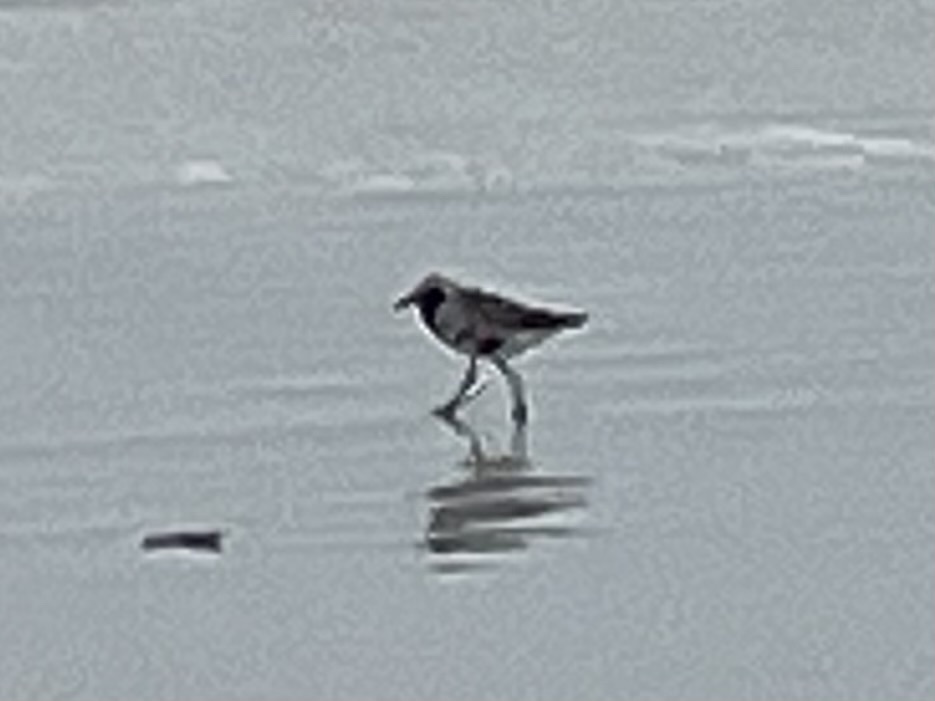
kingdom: Animalia
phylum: Chordata
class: Aves
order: Charadriiformes
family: Charadriidae
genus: Pluvialis
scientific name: Pluvialis squatarola
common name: Grey plover
